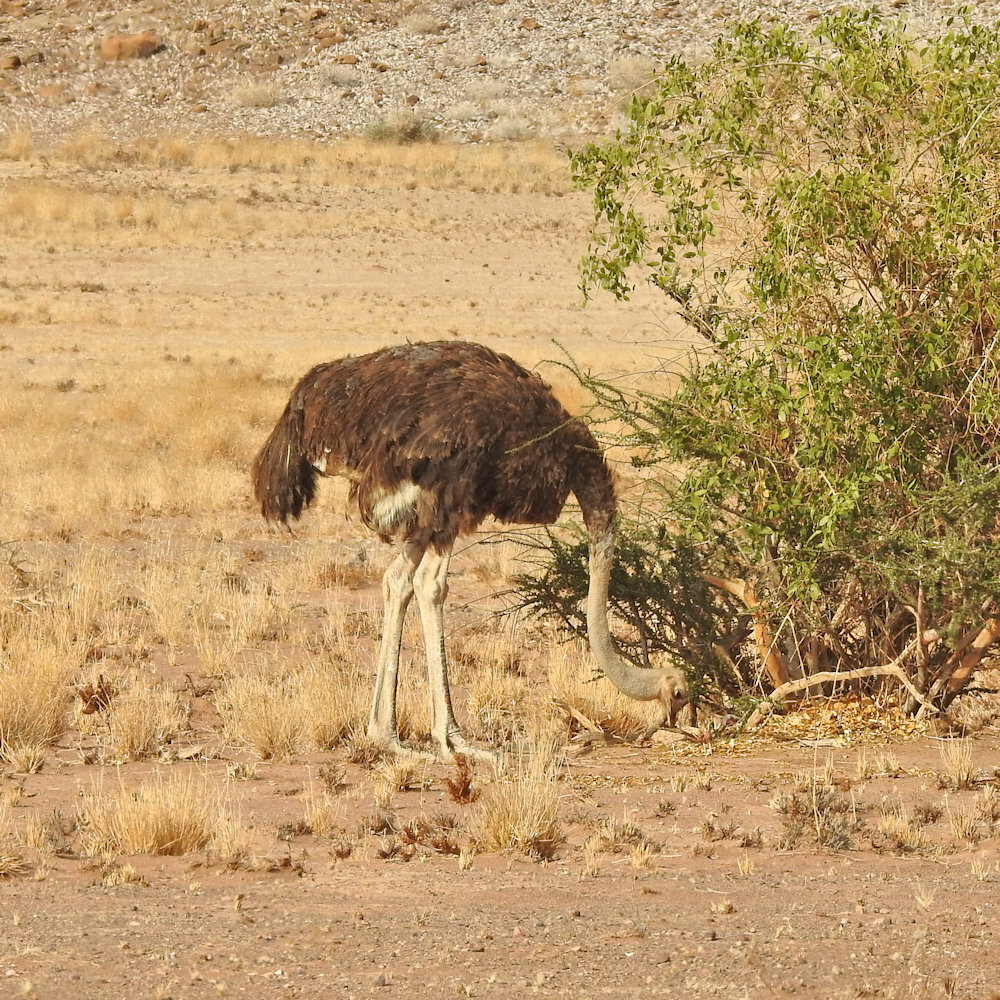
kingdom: Animalia
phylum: Chordata
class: Aves
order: Struthioniformes
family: Struthionidae
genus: Struthio
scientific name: Struthio camelus
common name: Common ostrich
